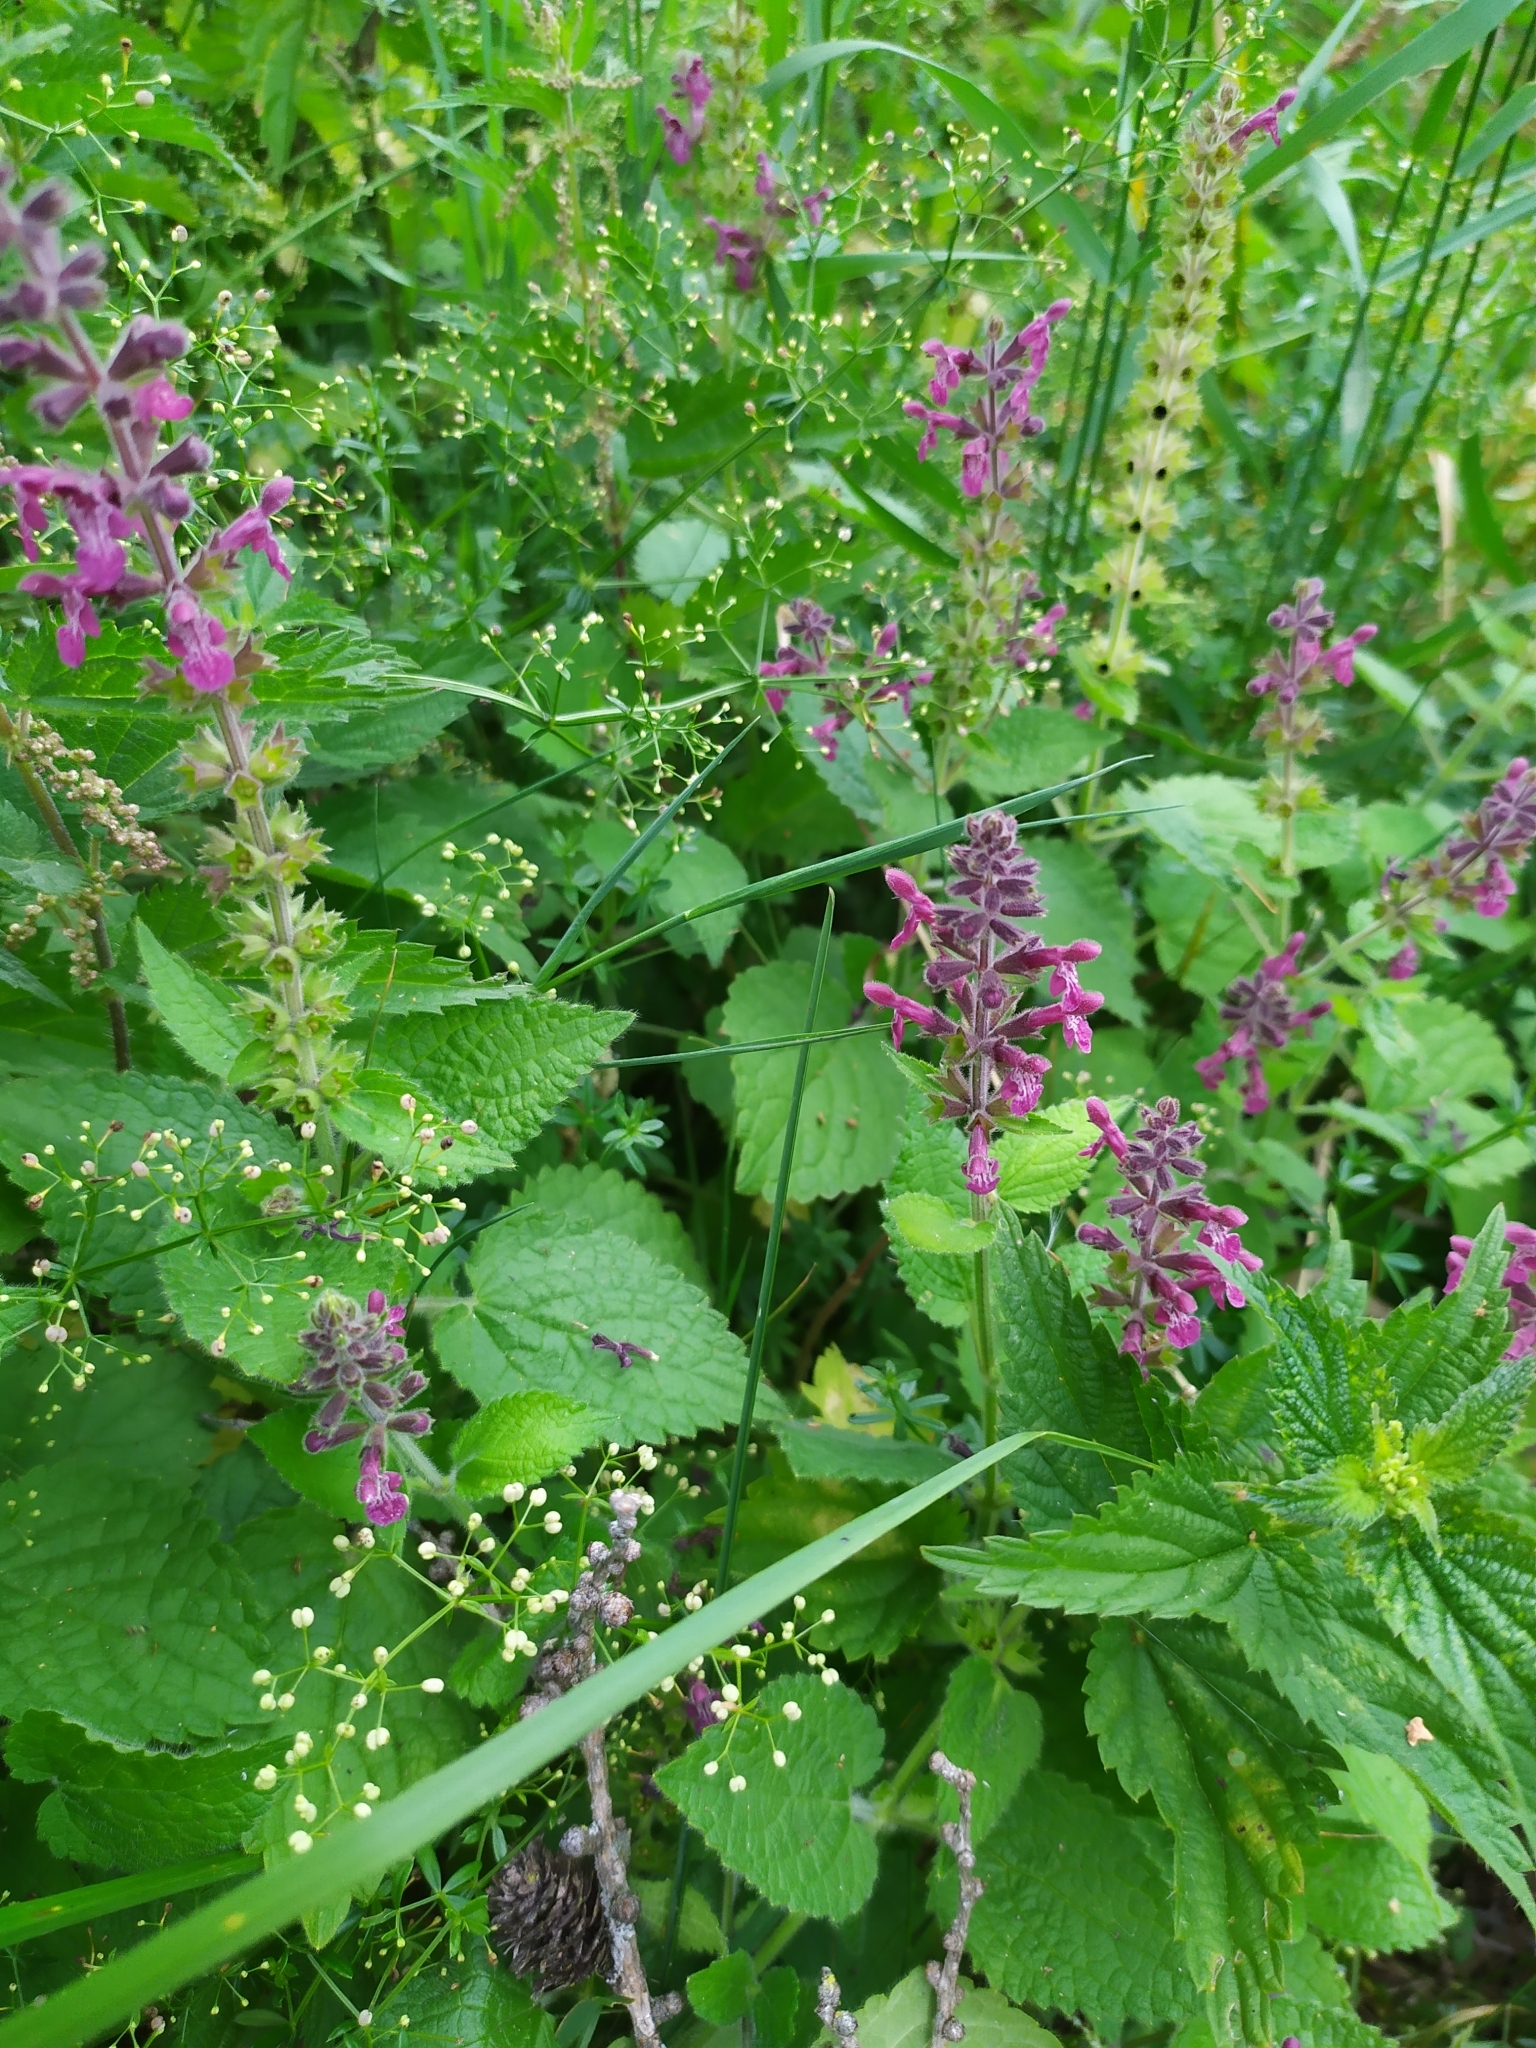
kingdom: Plantae
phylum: Tracheophyta
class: Magnoliopsida
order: Lamiales
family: Lamiaceae
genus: Stachys
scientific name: Stachys sylvatica
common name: Hedge woundwort
